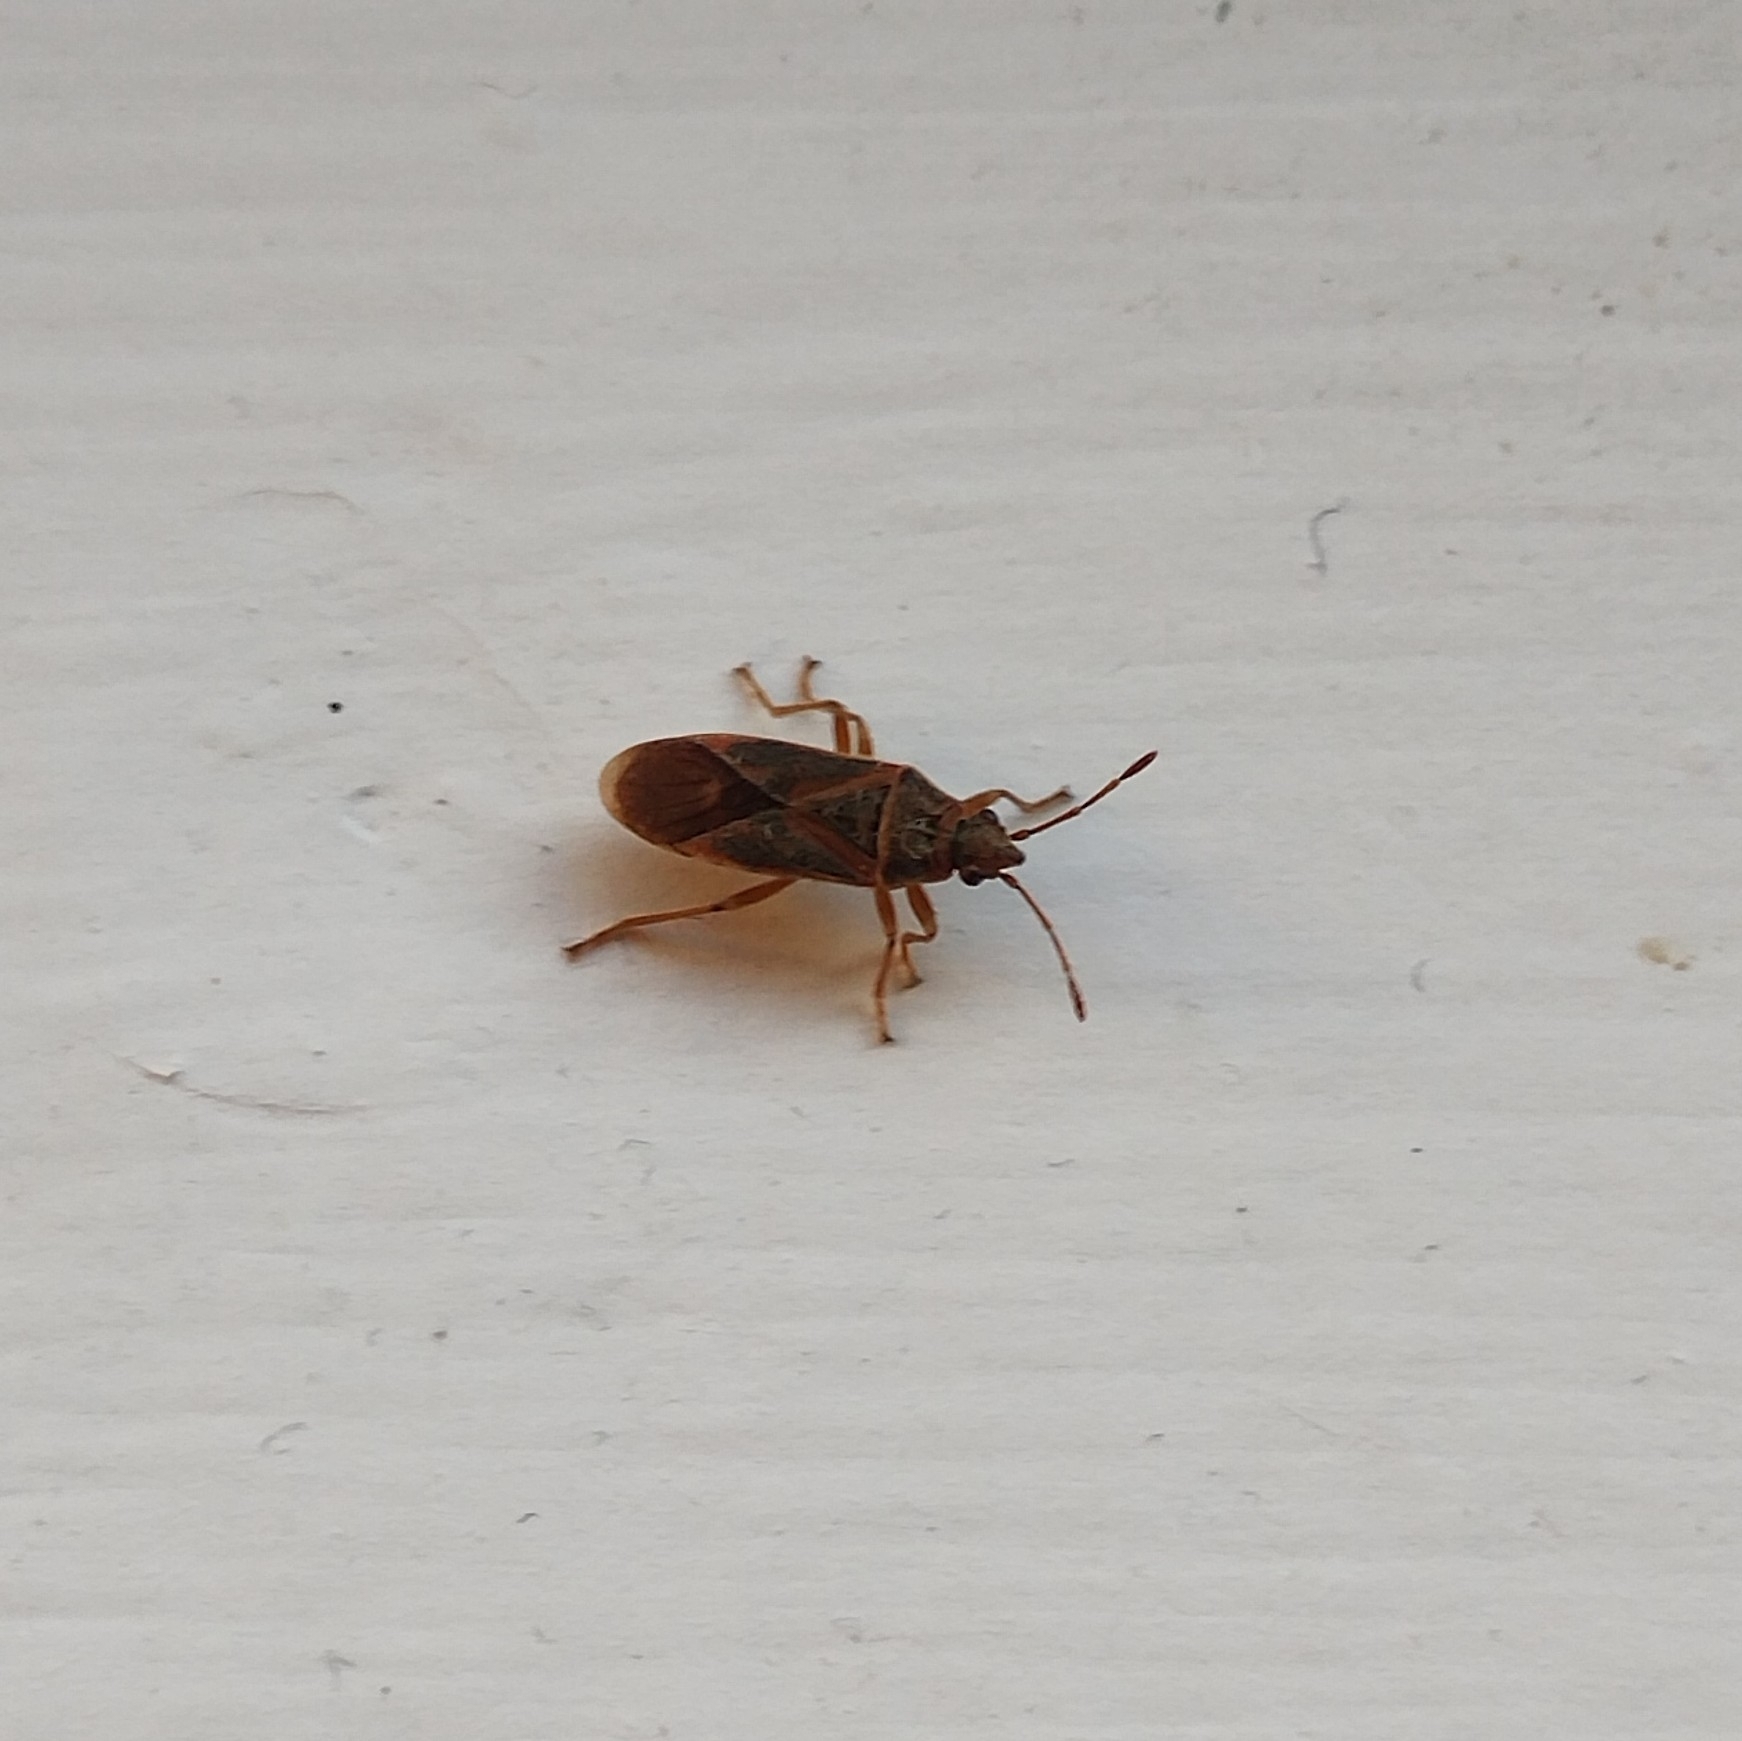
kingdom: Animalia
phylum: Arthropoda
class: Insecta
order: Hemiptera
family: Lygaeidae
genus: Arocatus
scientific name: Arocatus longiceps
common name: Plane tree bug
